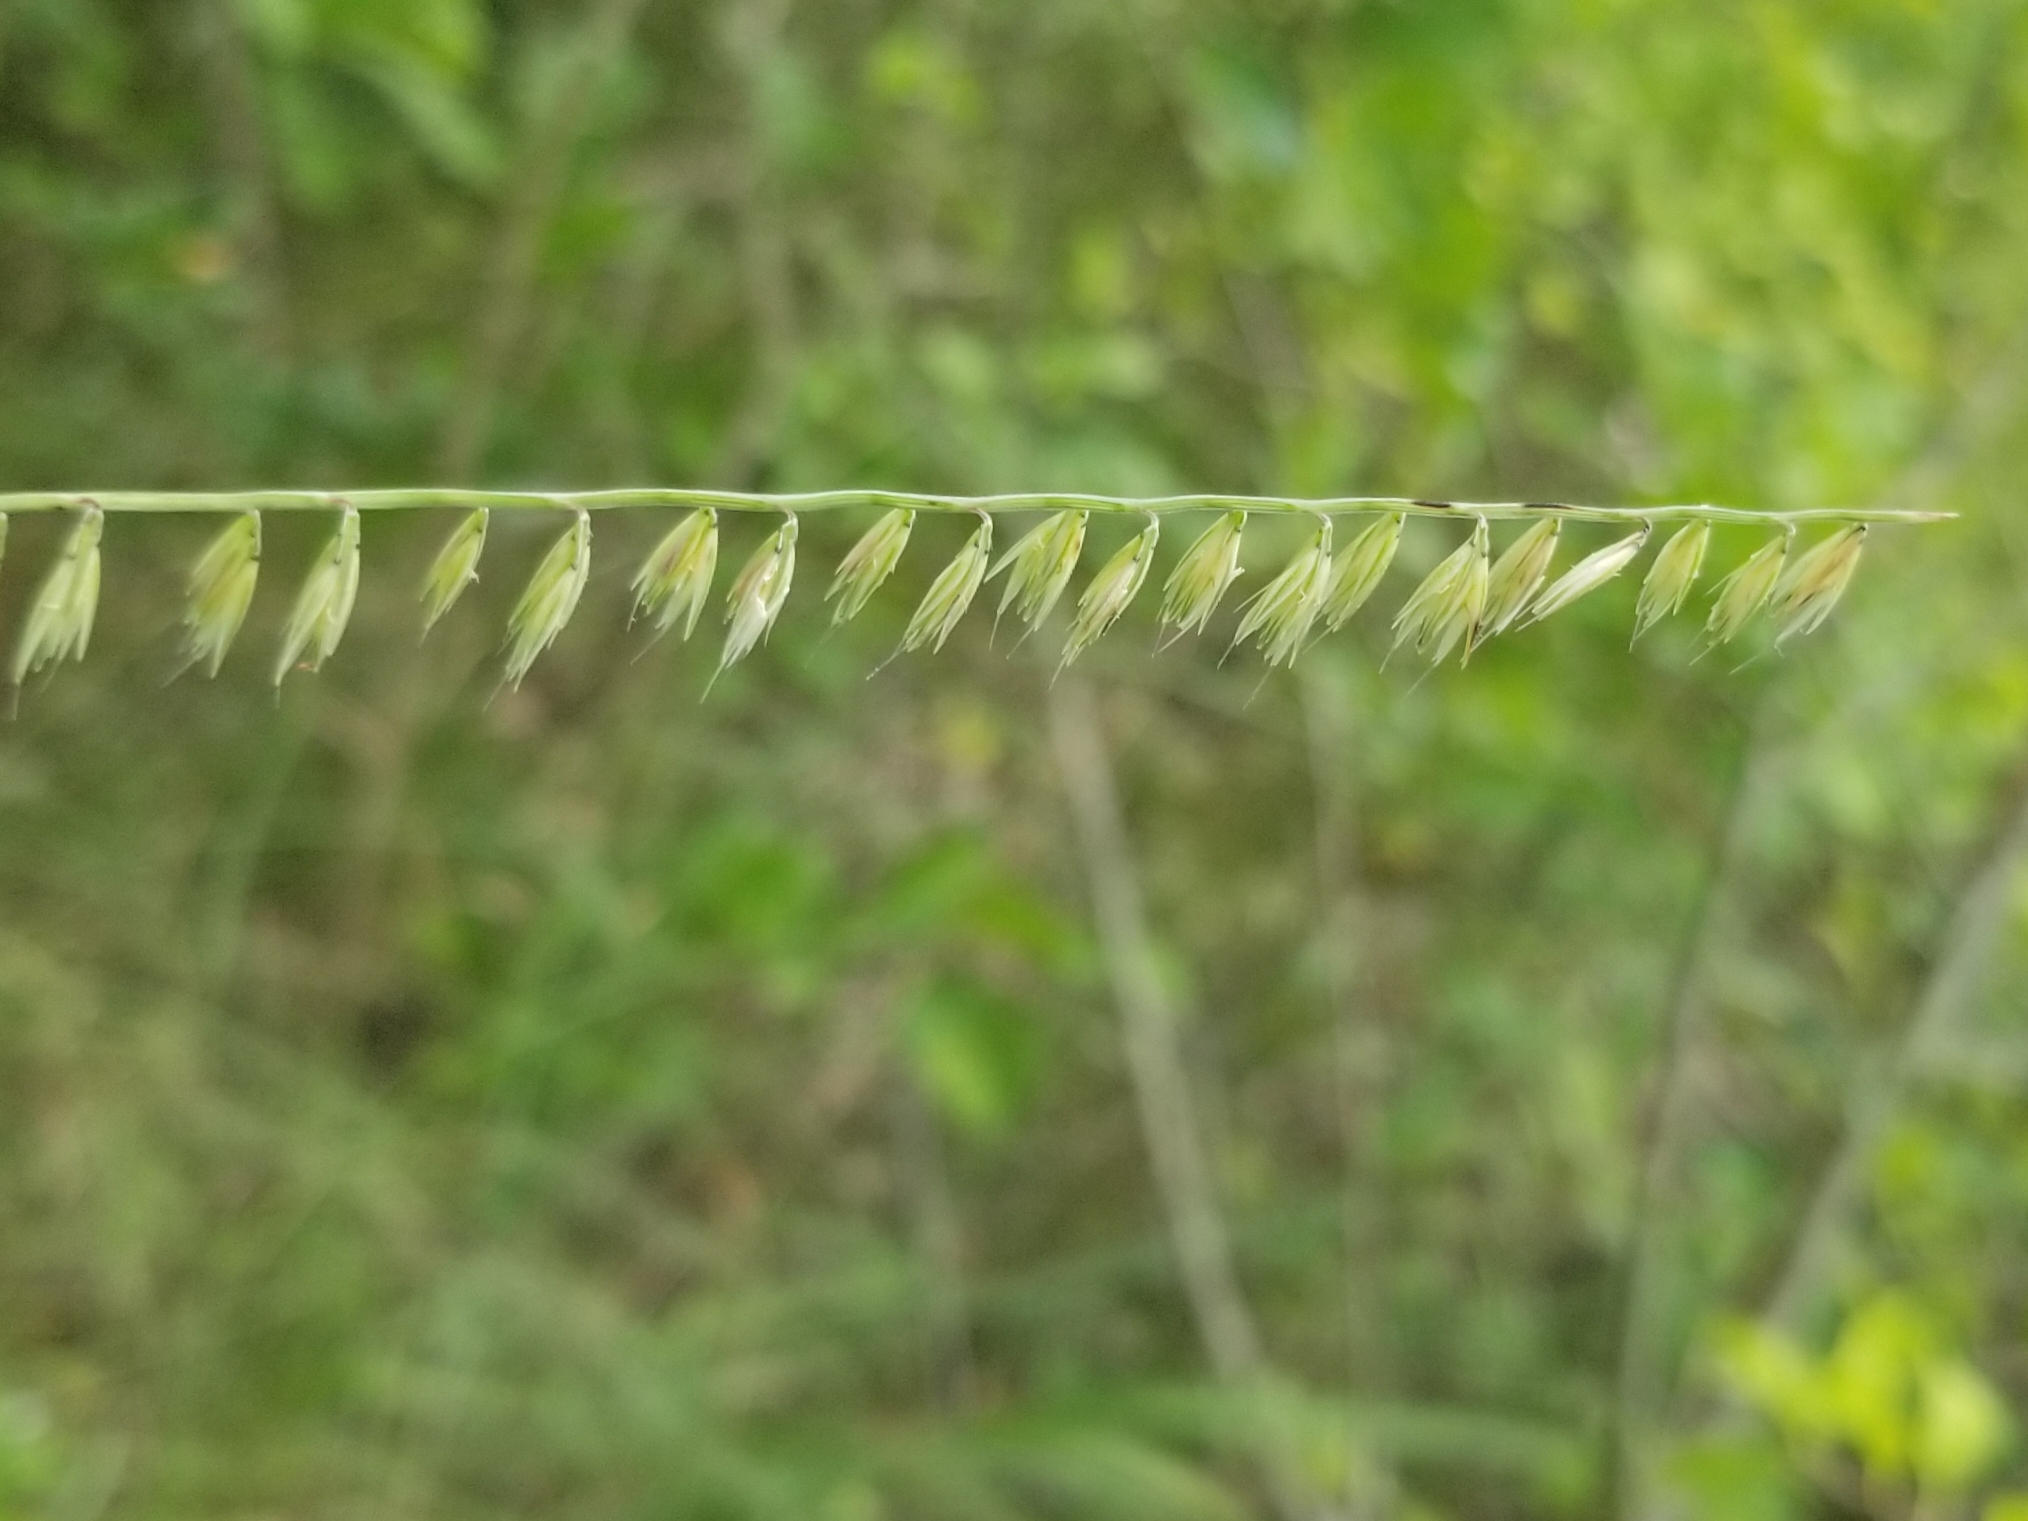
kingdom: Plantae
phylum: Tracheophyta
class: Liliopsida
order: Poales
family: Poaceae
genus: Bouteloua
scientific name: Bouteloua curtipendula
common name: Side-oats grama
